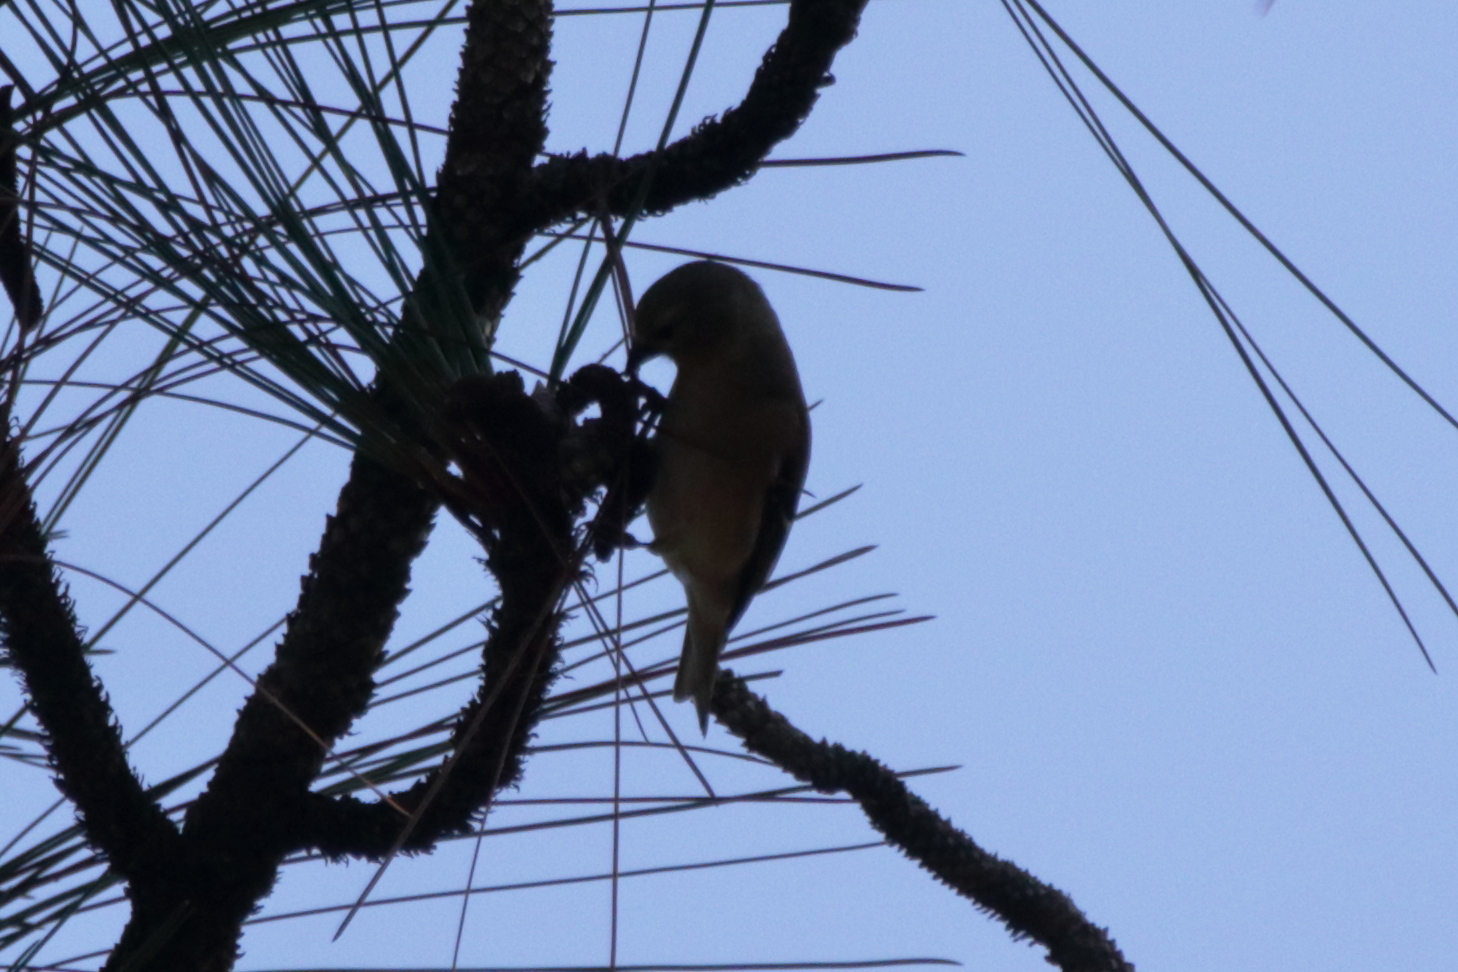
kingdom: Animalia
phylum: Chordata
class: Aves
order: Passeriformes
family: Fringillidae
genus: Spinus
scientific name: Spinus tristis
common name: American goldfinch
